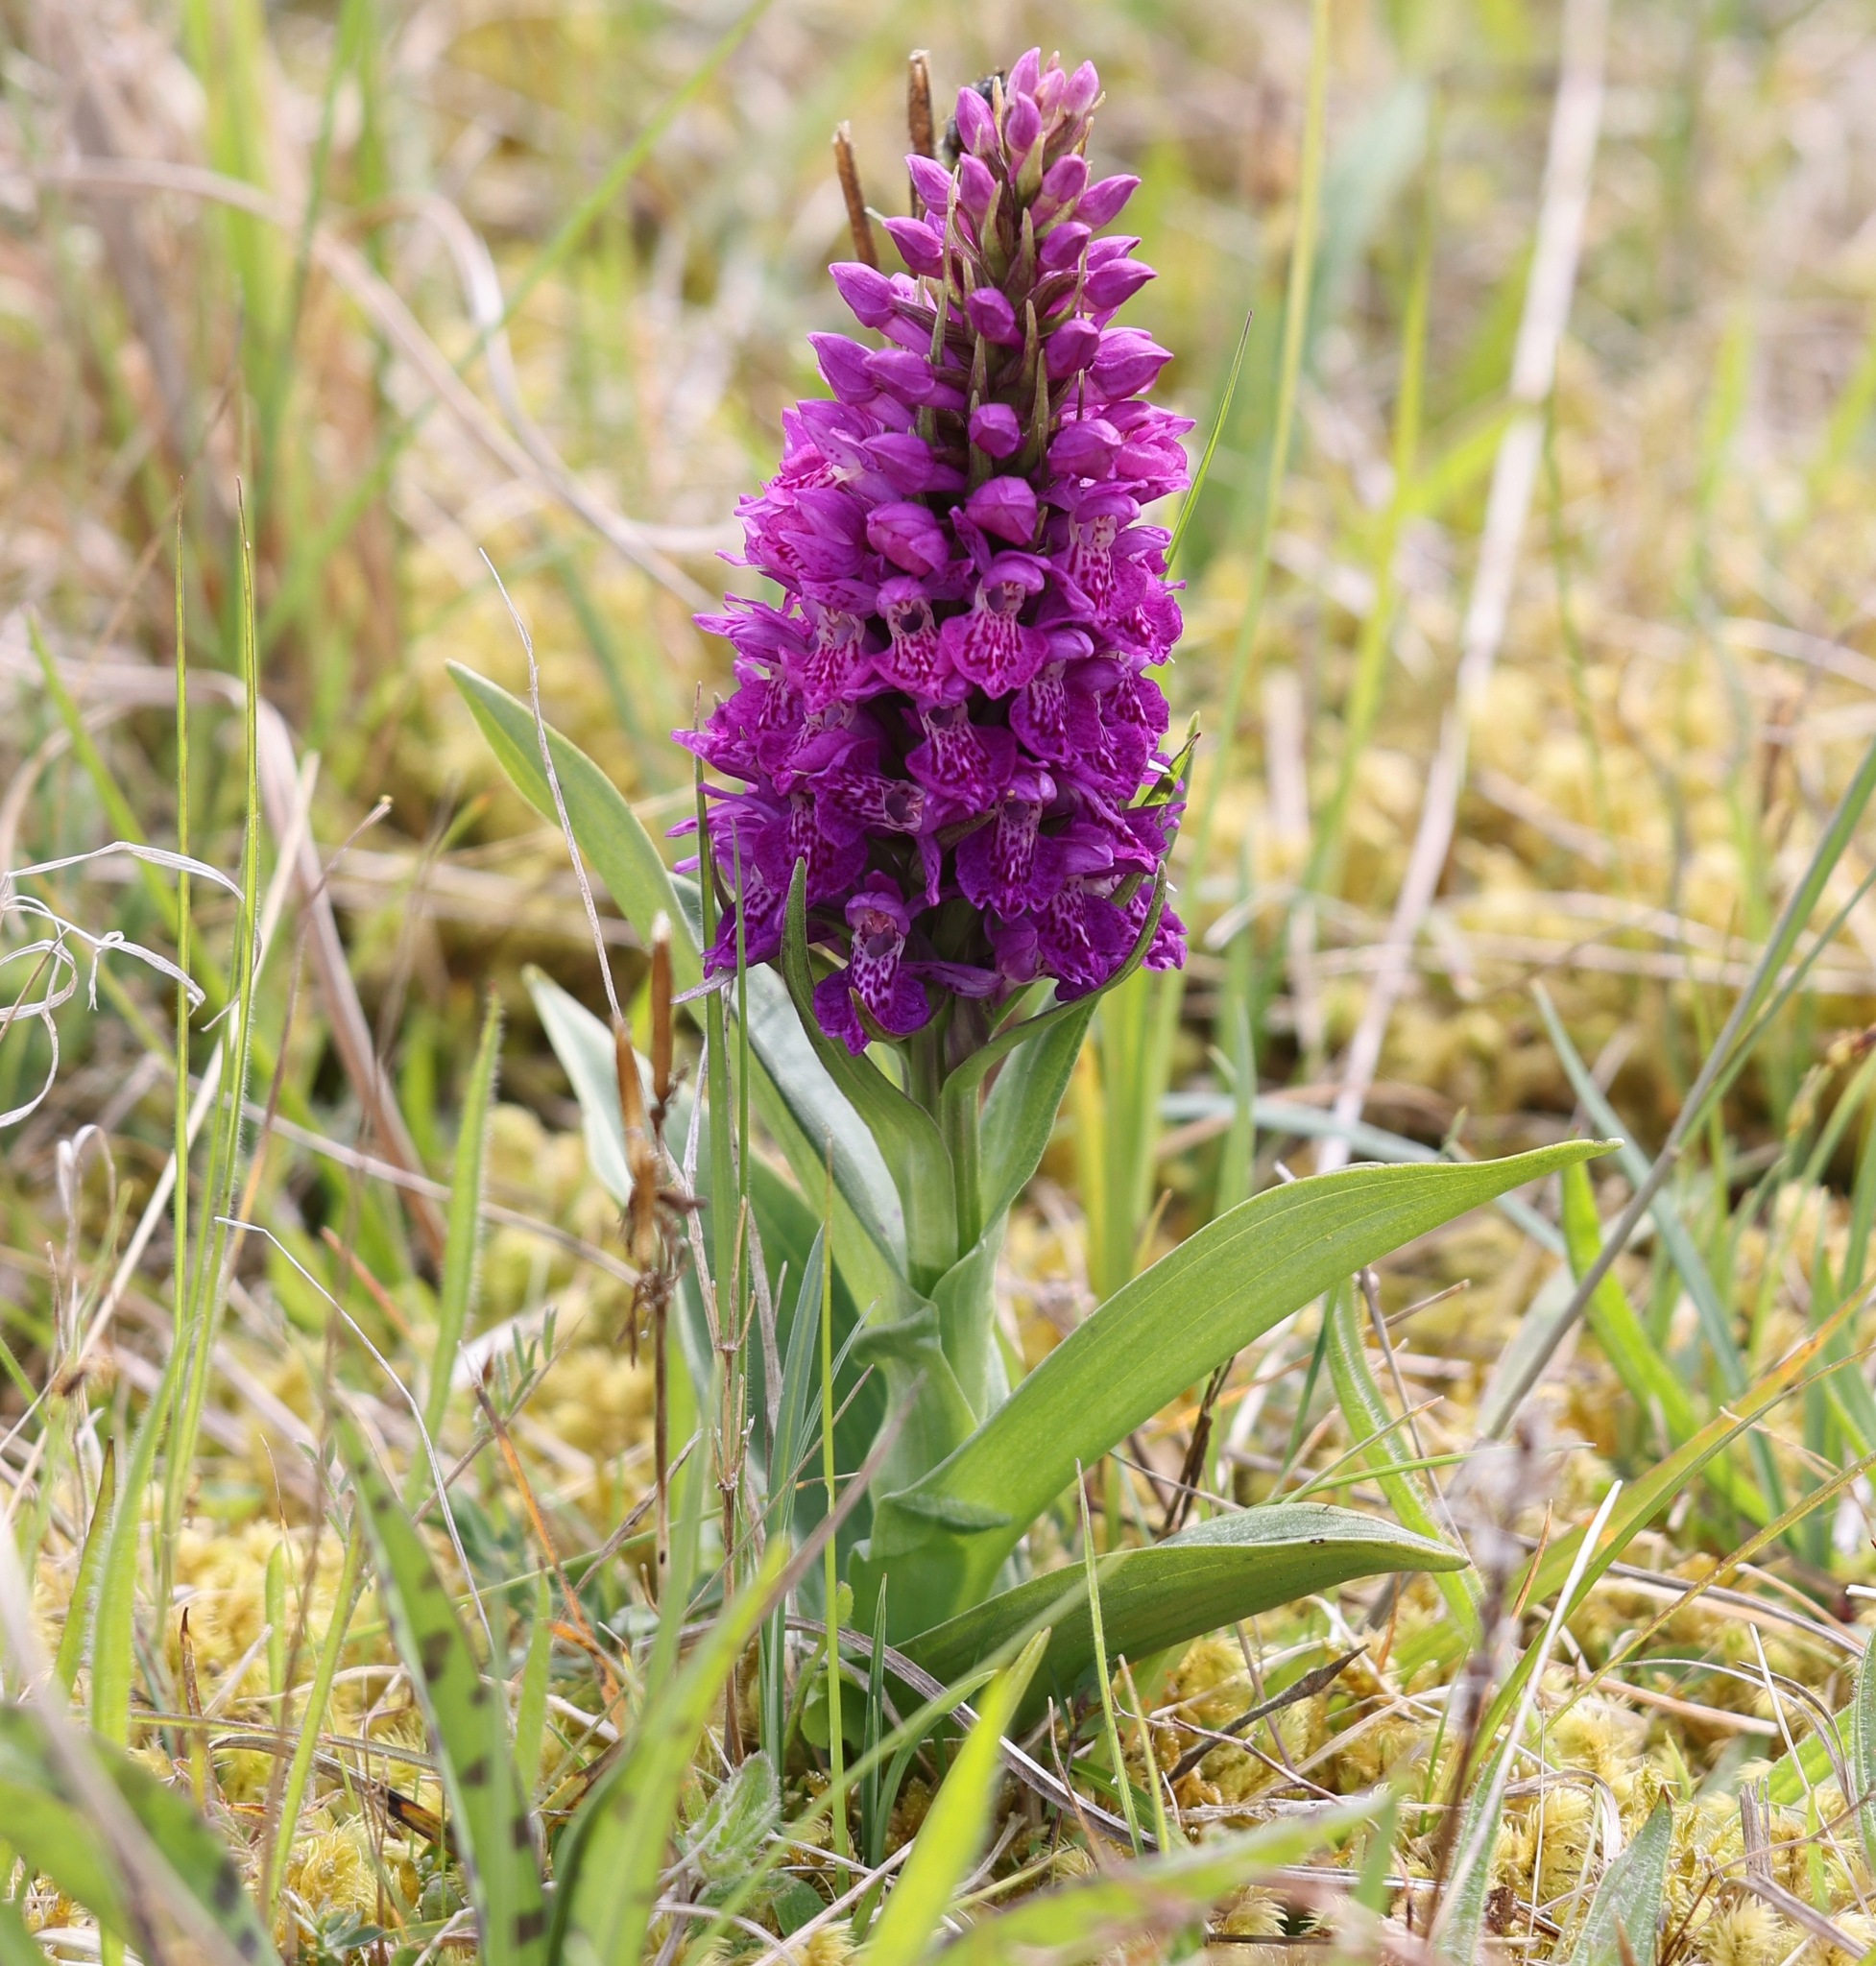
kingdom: Plantae
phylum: Tracheophyta
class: Liliopsida
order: Asparagales
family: Orchidaceae
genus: Dactylorhiza
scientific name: Dactylorhiza majalis
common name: Marsh orchid
